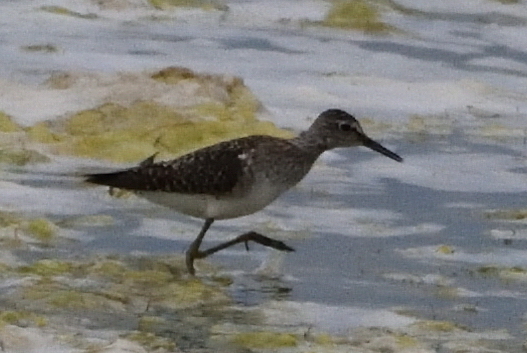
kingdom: Animalia
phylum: Chordata
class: Aves
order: Charadriiformes
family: Scolopacidae
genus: Tringa
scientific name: Tringa glareola
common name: Wood sandpiper
